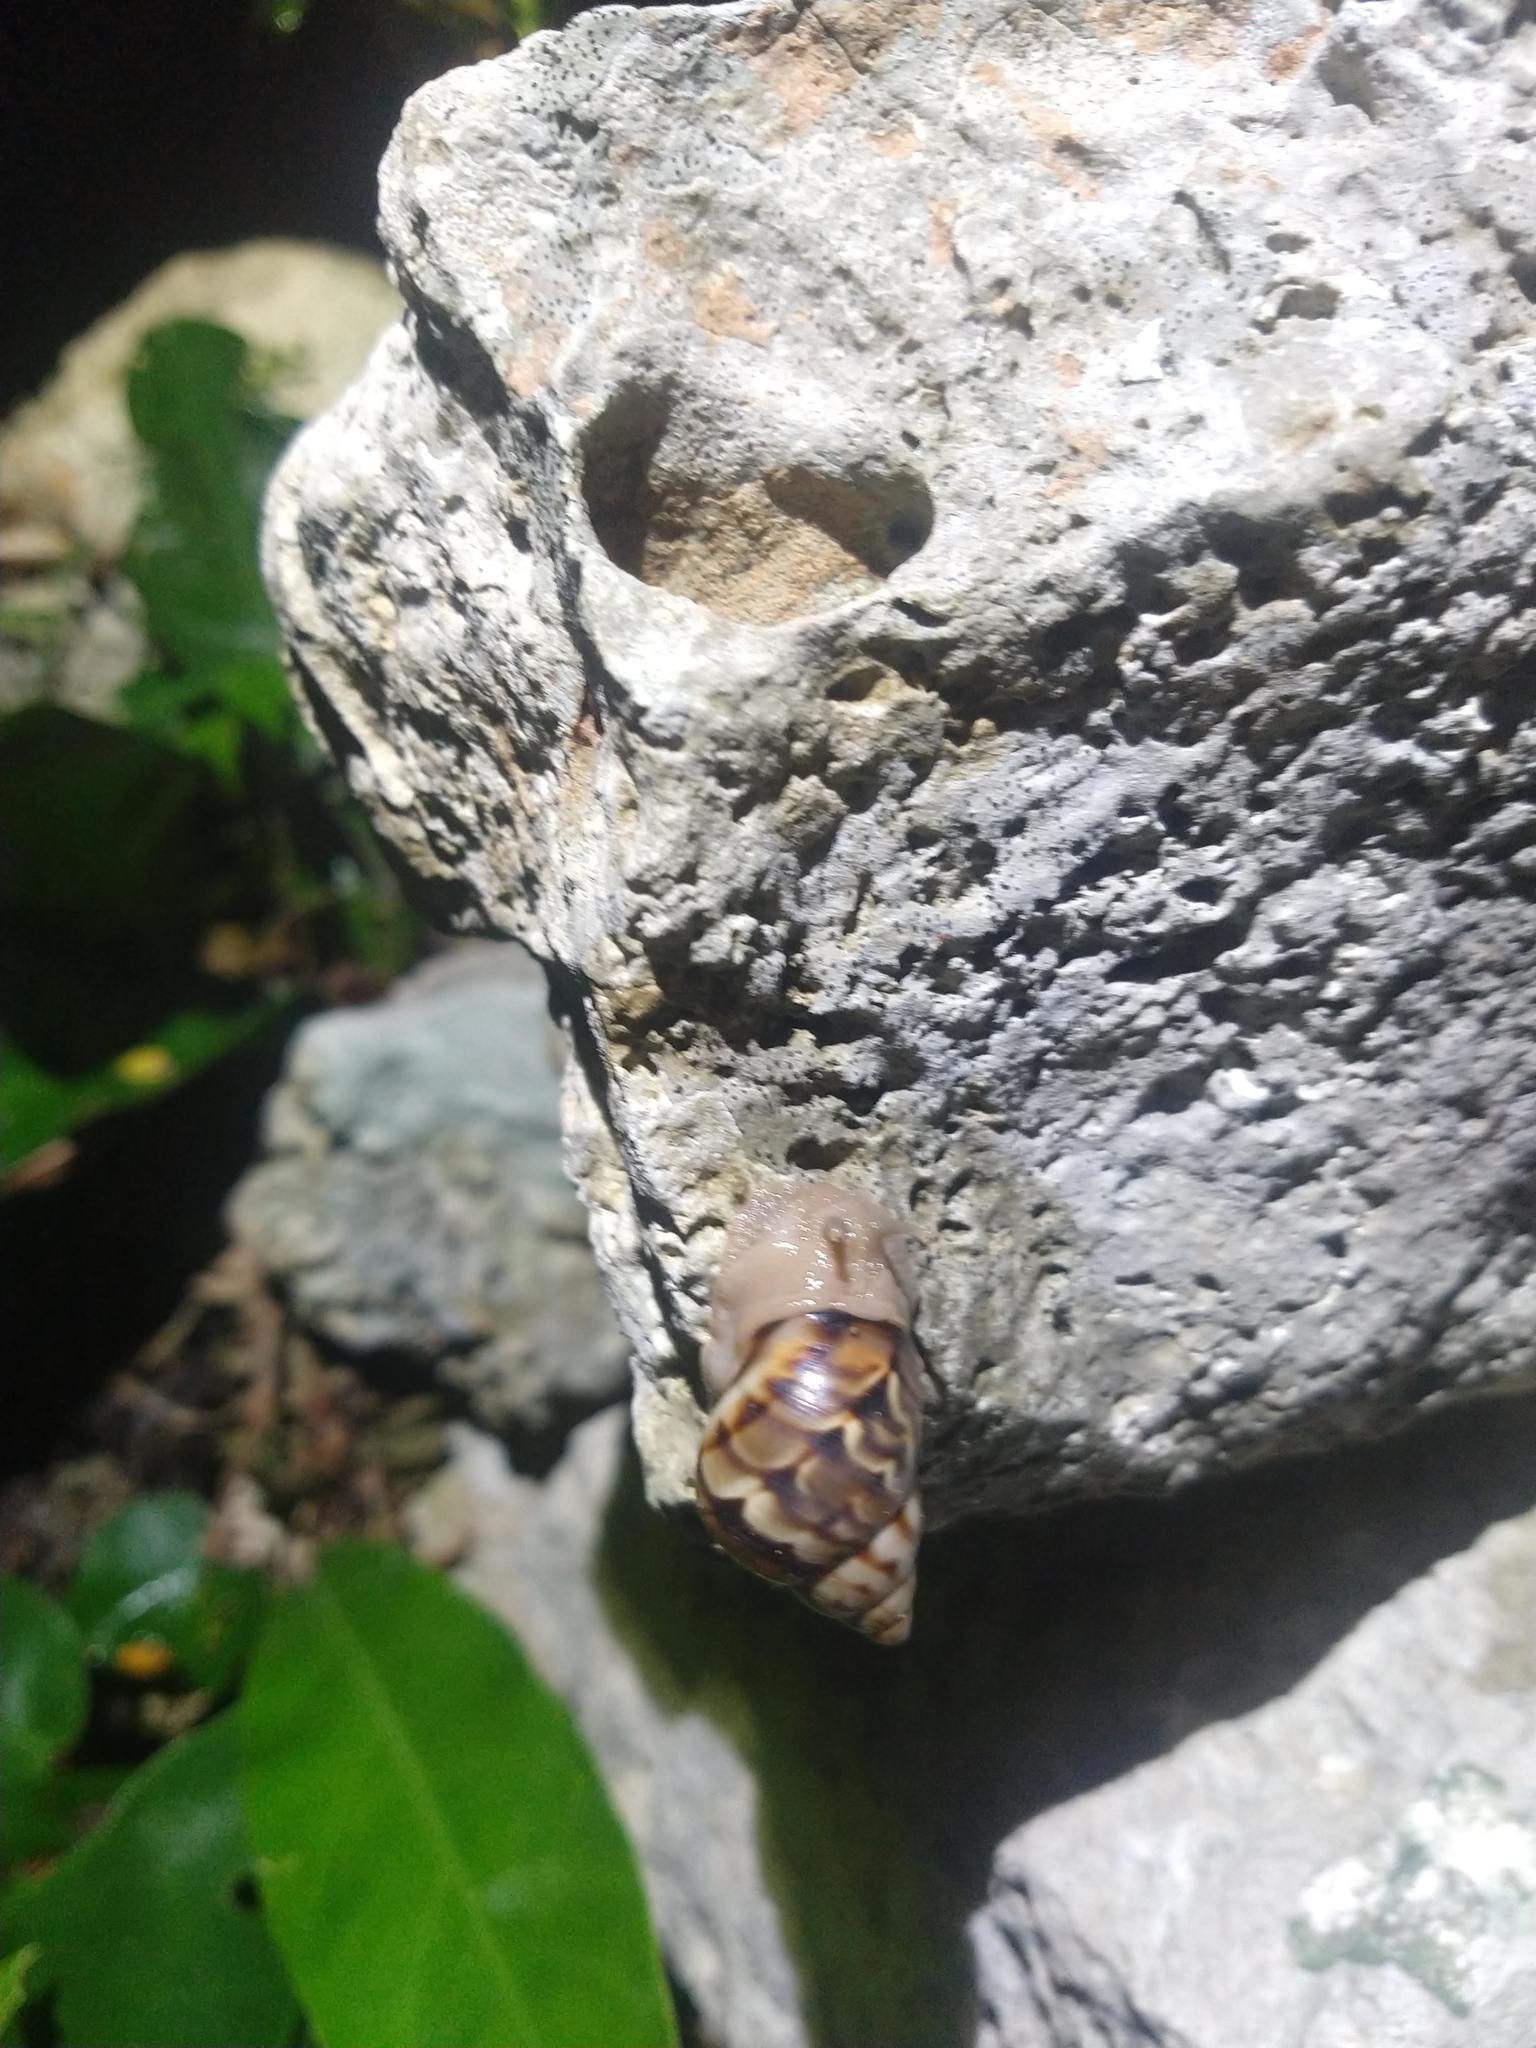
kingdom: Animalia
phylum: Mollusca
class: Gastropoda
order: Stylommatophora
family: Orthalicidae
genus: Orthalicus
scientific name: Orthalicus princeps
